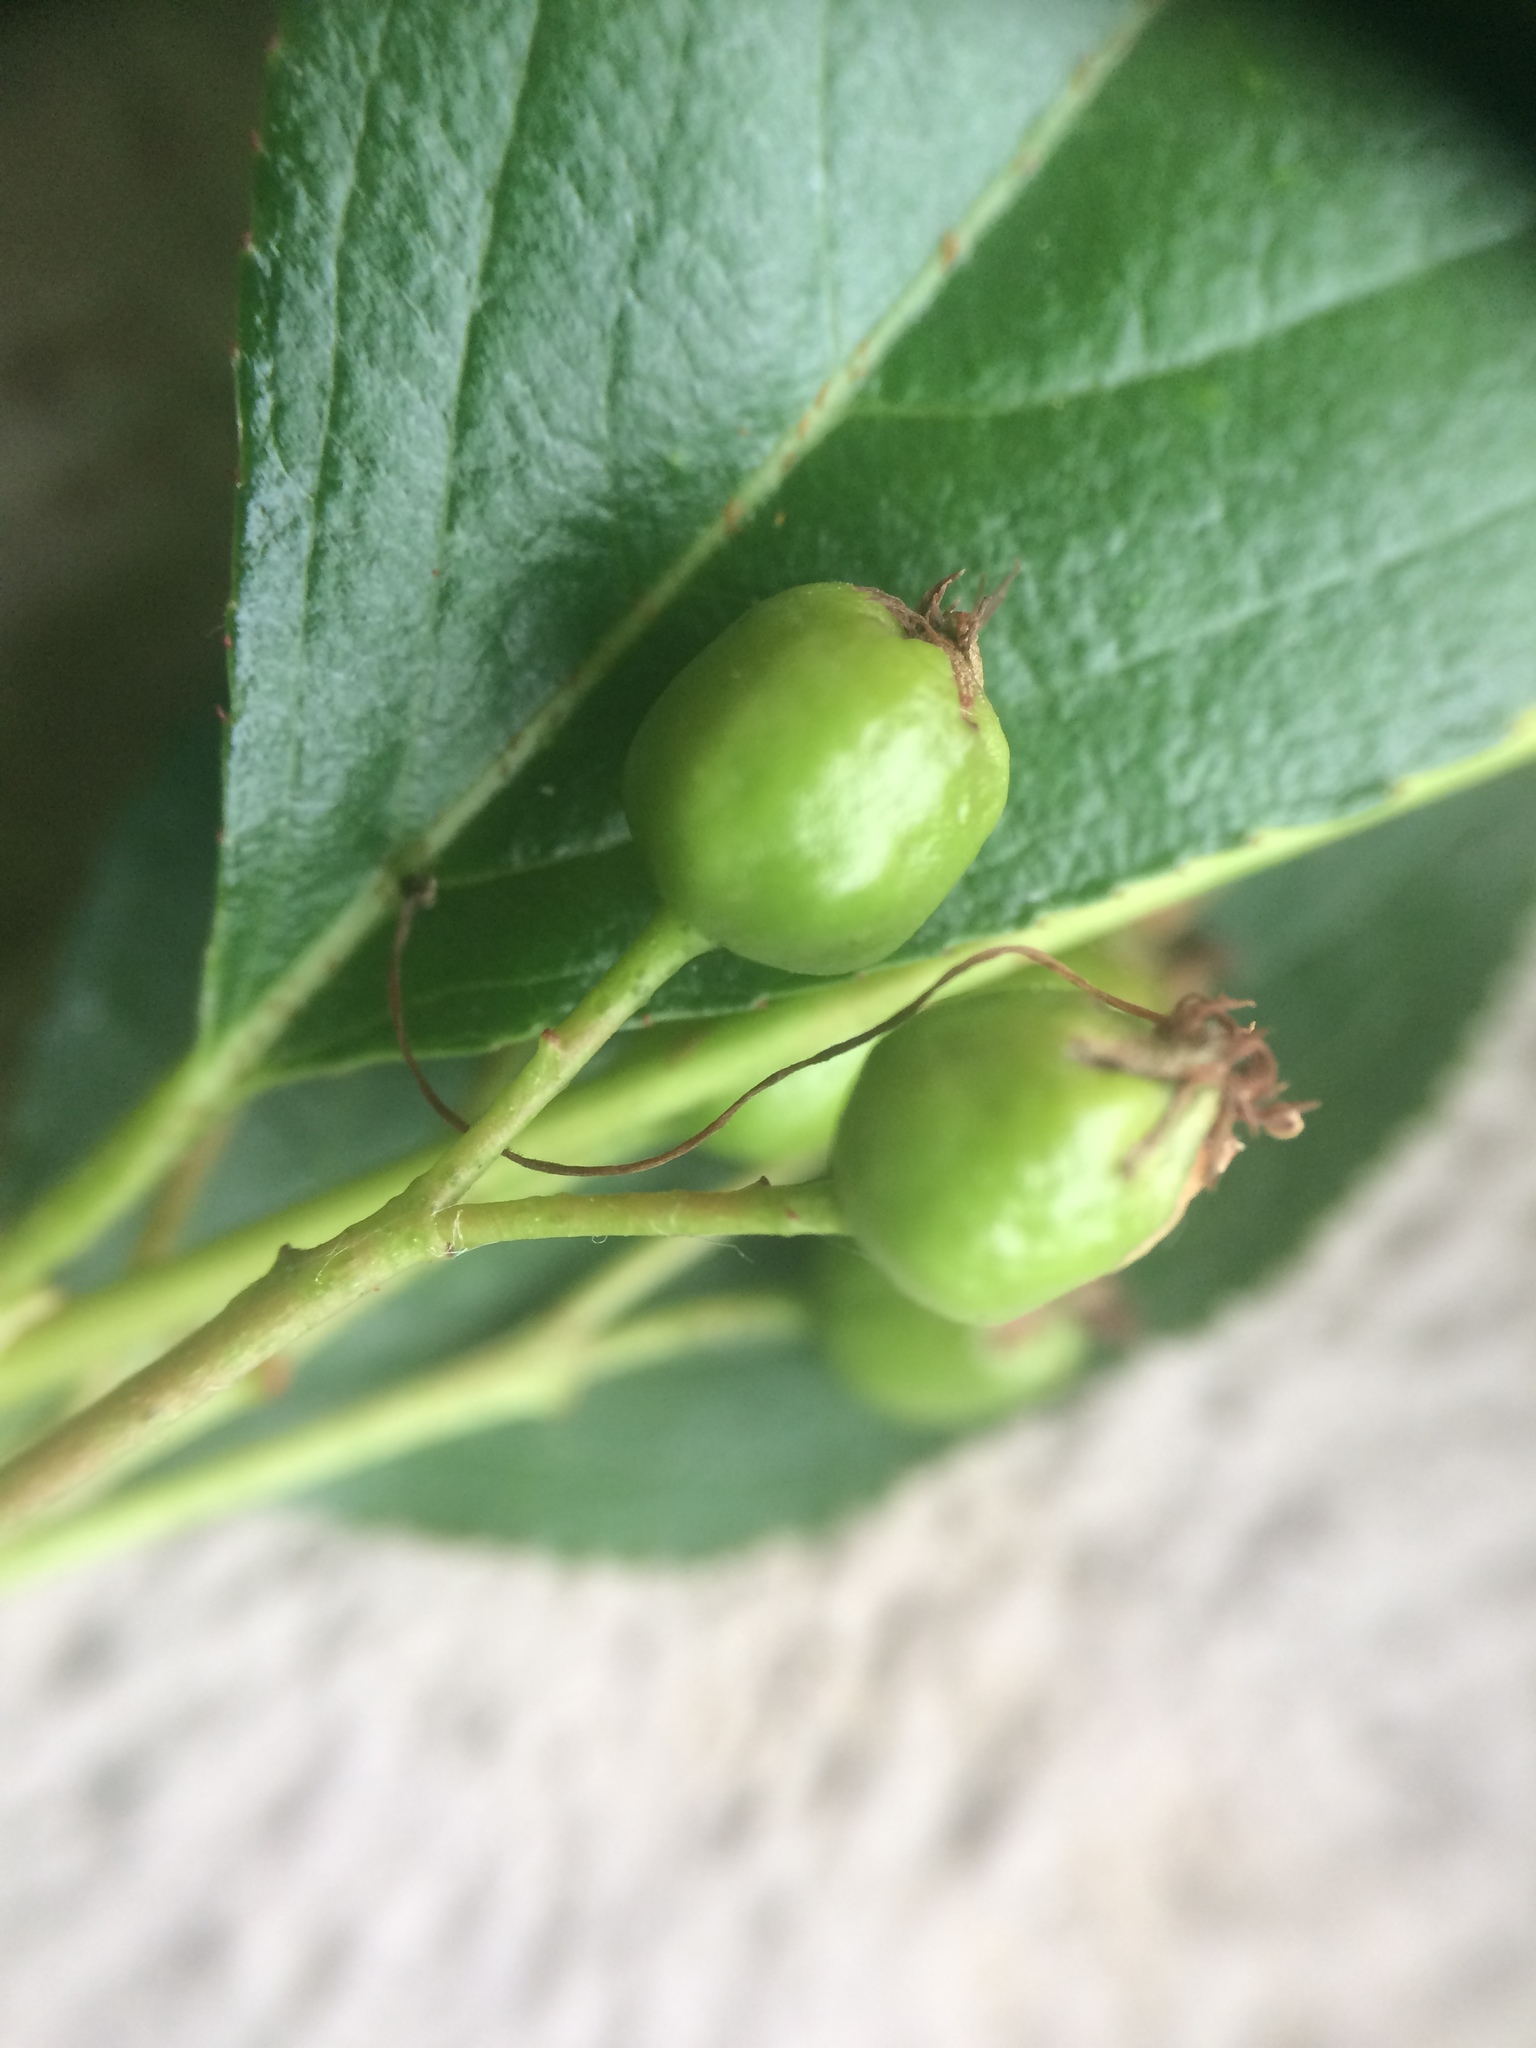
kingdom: Plantae
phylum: Tracheophyta
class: Magnoliopsida
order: Rosales
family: Rosaceae
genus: Aronia
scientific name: Aronia melanocarpa
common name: Black chokeberry
